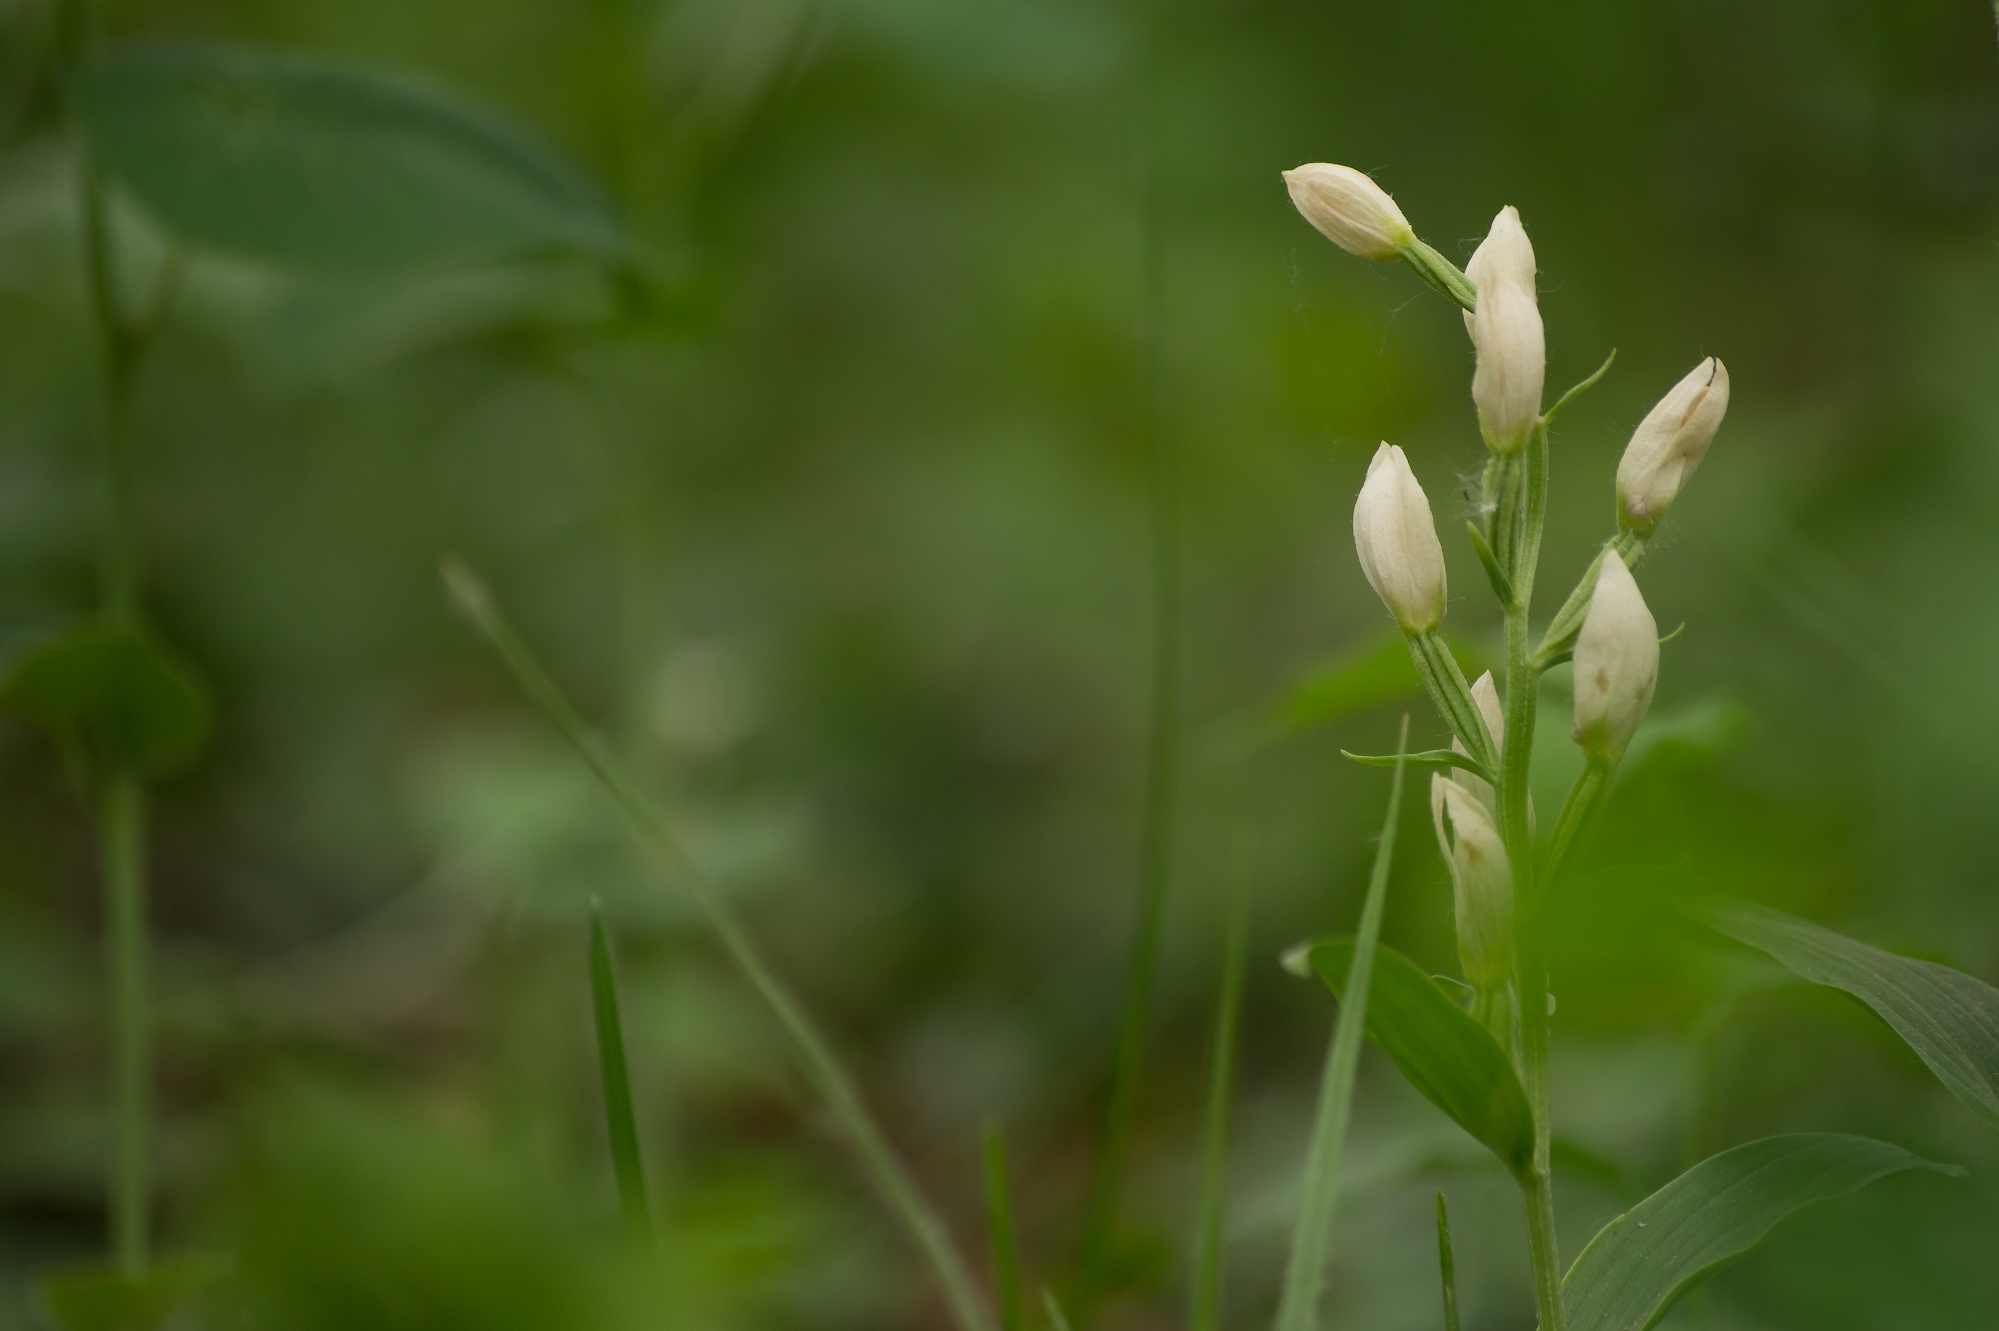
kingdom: Plantae
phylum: Tracheophyta
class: Liliopsida
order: Asparagales
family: Orchidaceae
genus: Cephalanthera
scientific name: Cephalanthera damasonium
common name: White helleborine
